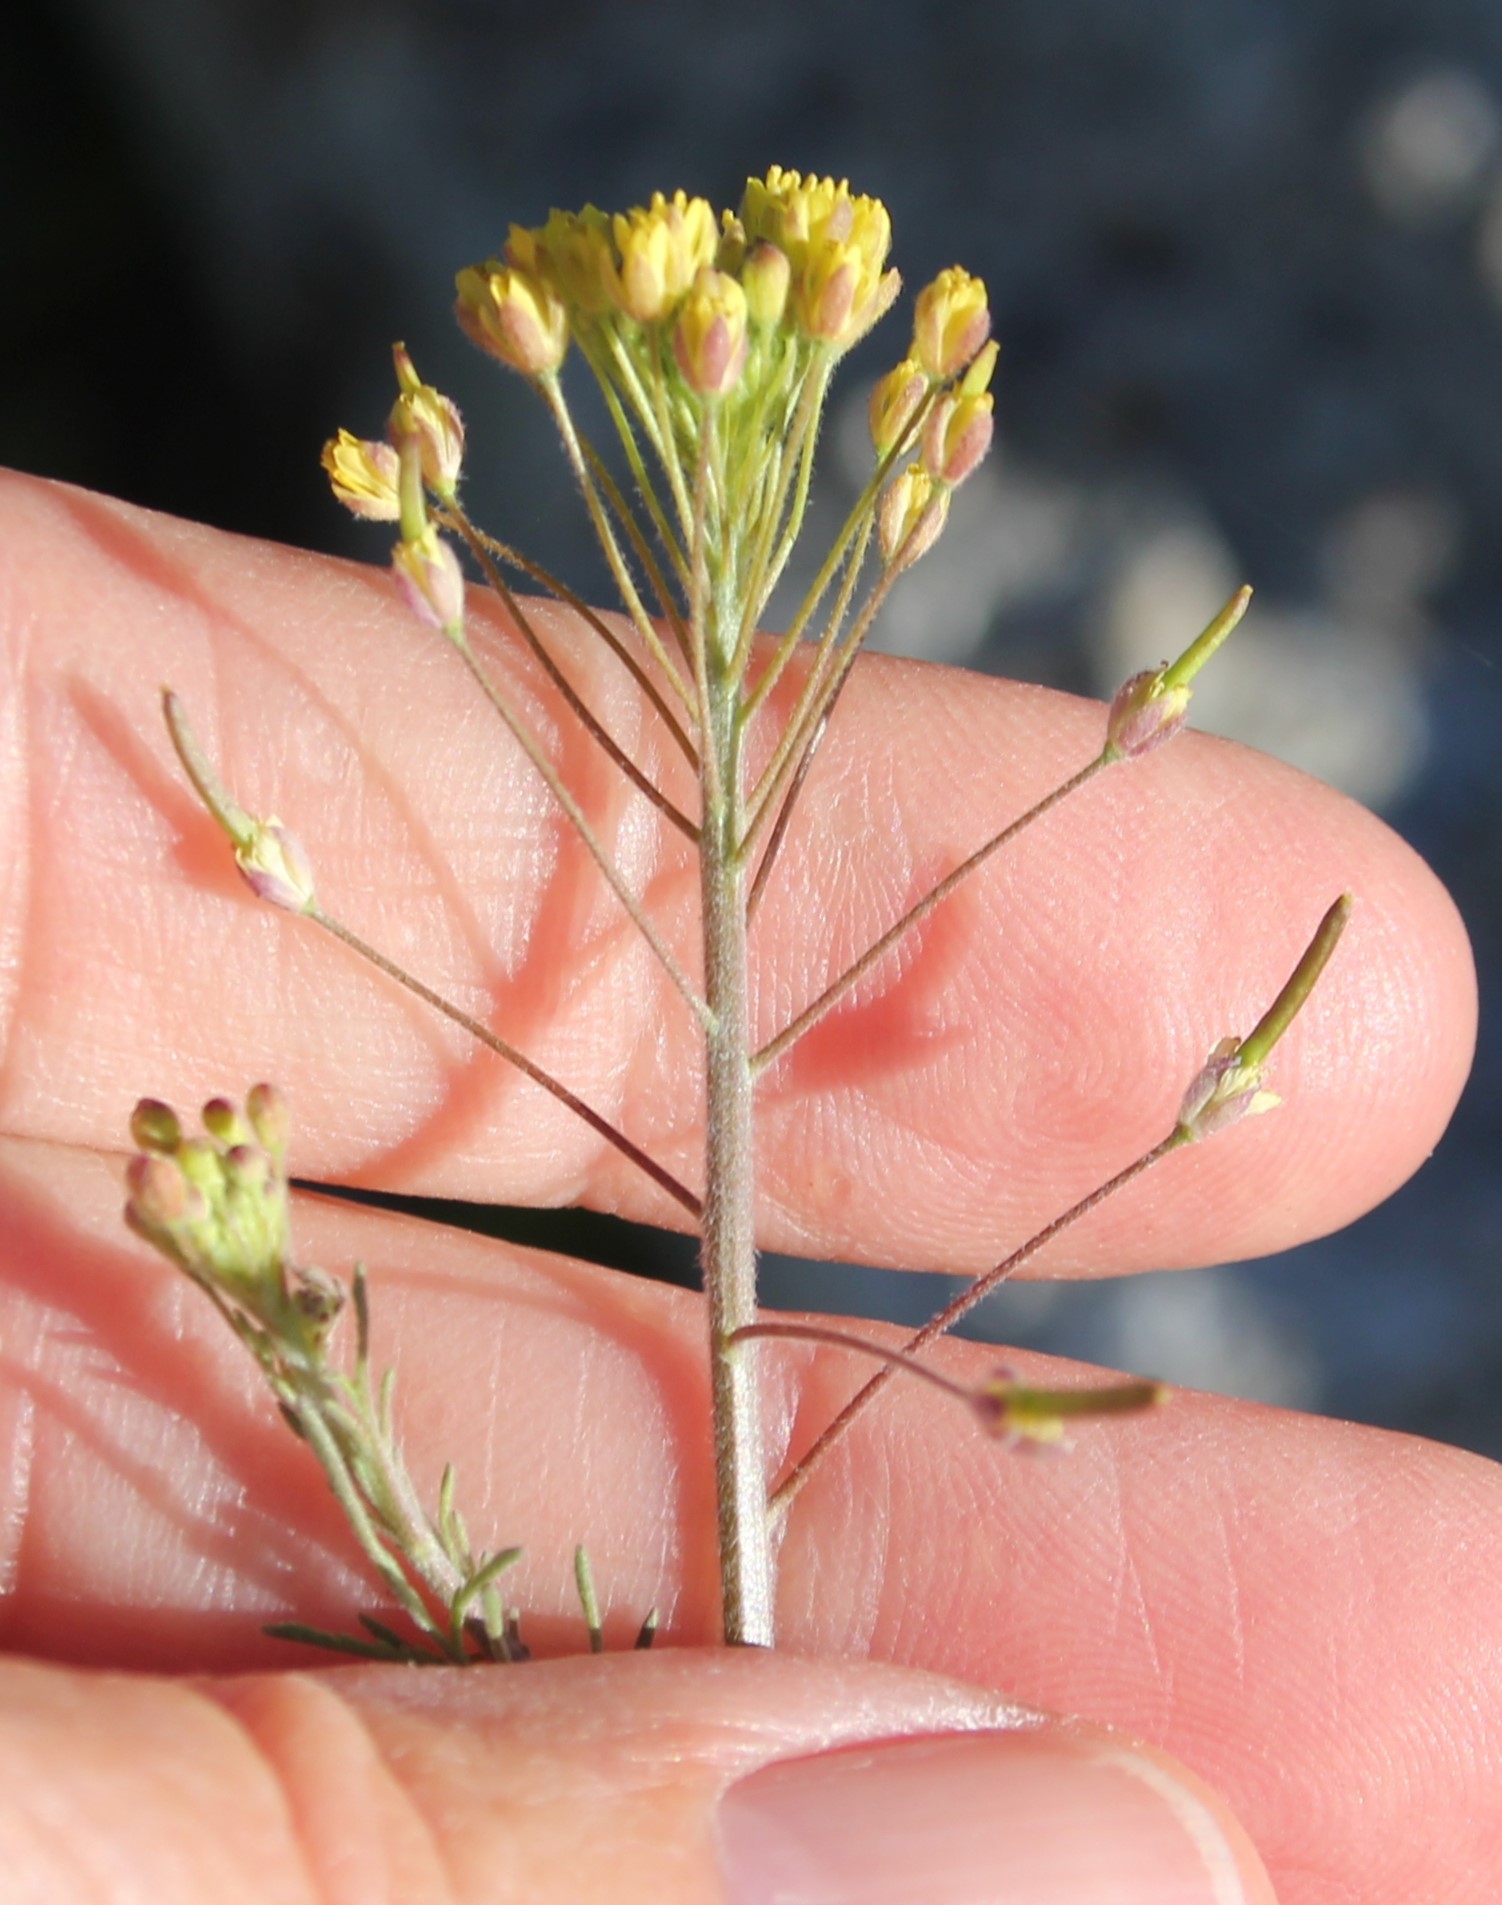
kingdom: Plantae
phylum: Tracheophyta
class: Magnoliopsida
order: Brassicales
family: Brassicaceae
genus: Descurainia
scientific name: Descurainia pinnata
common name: Western tansy mustard
